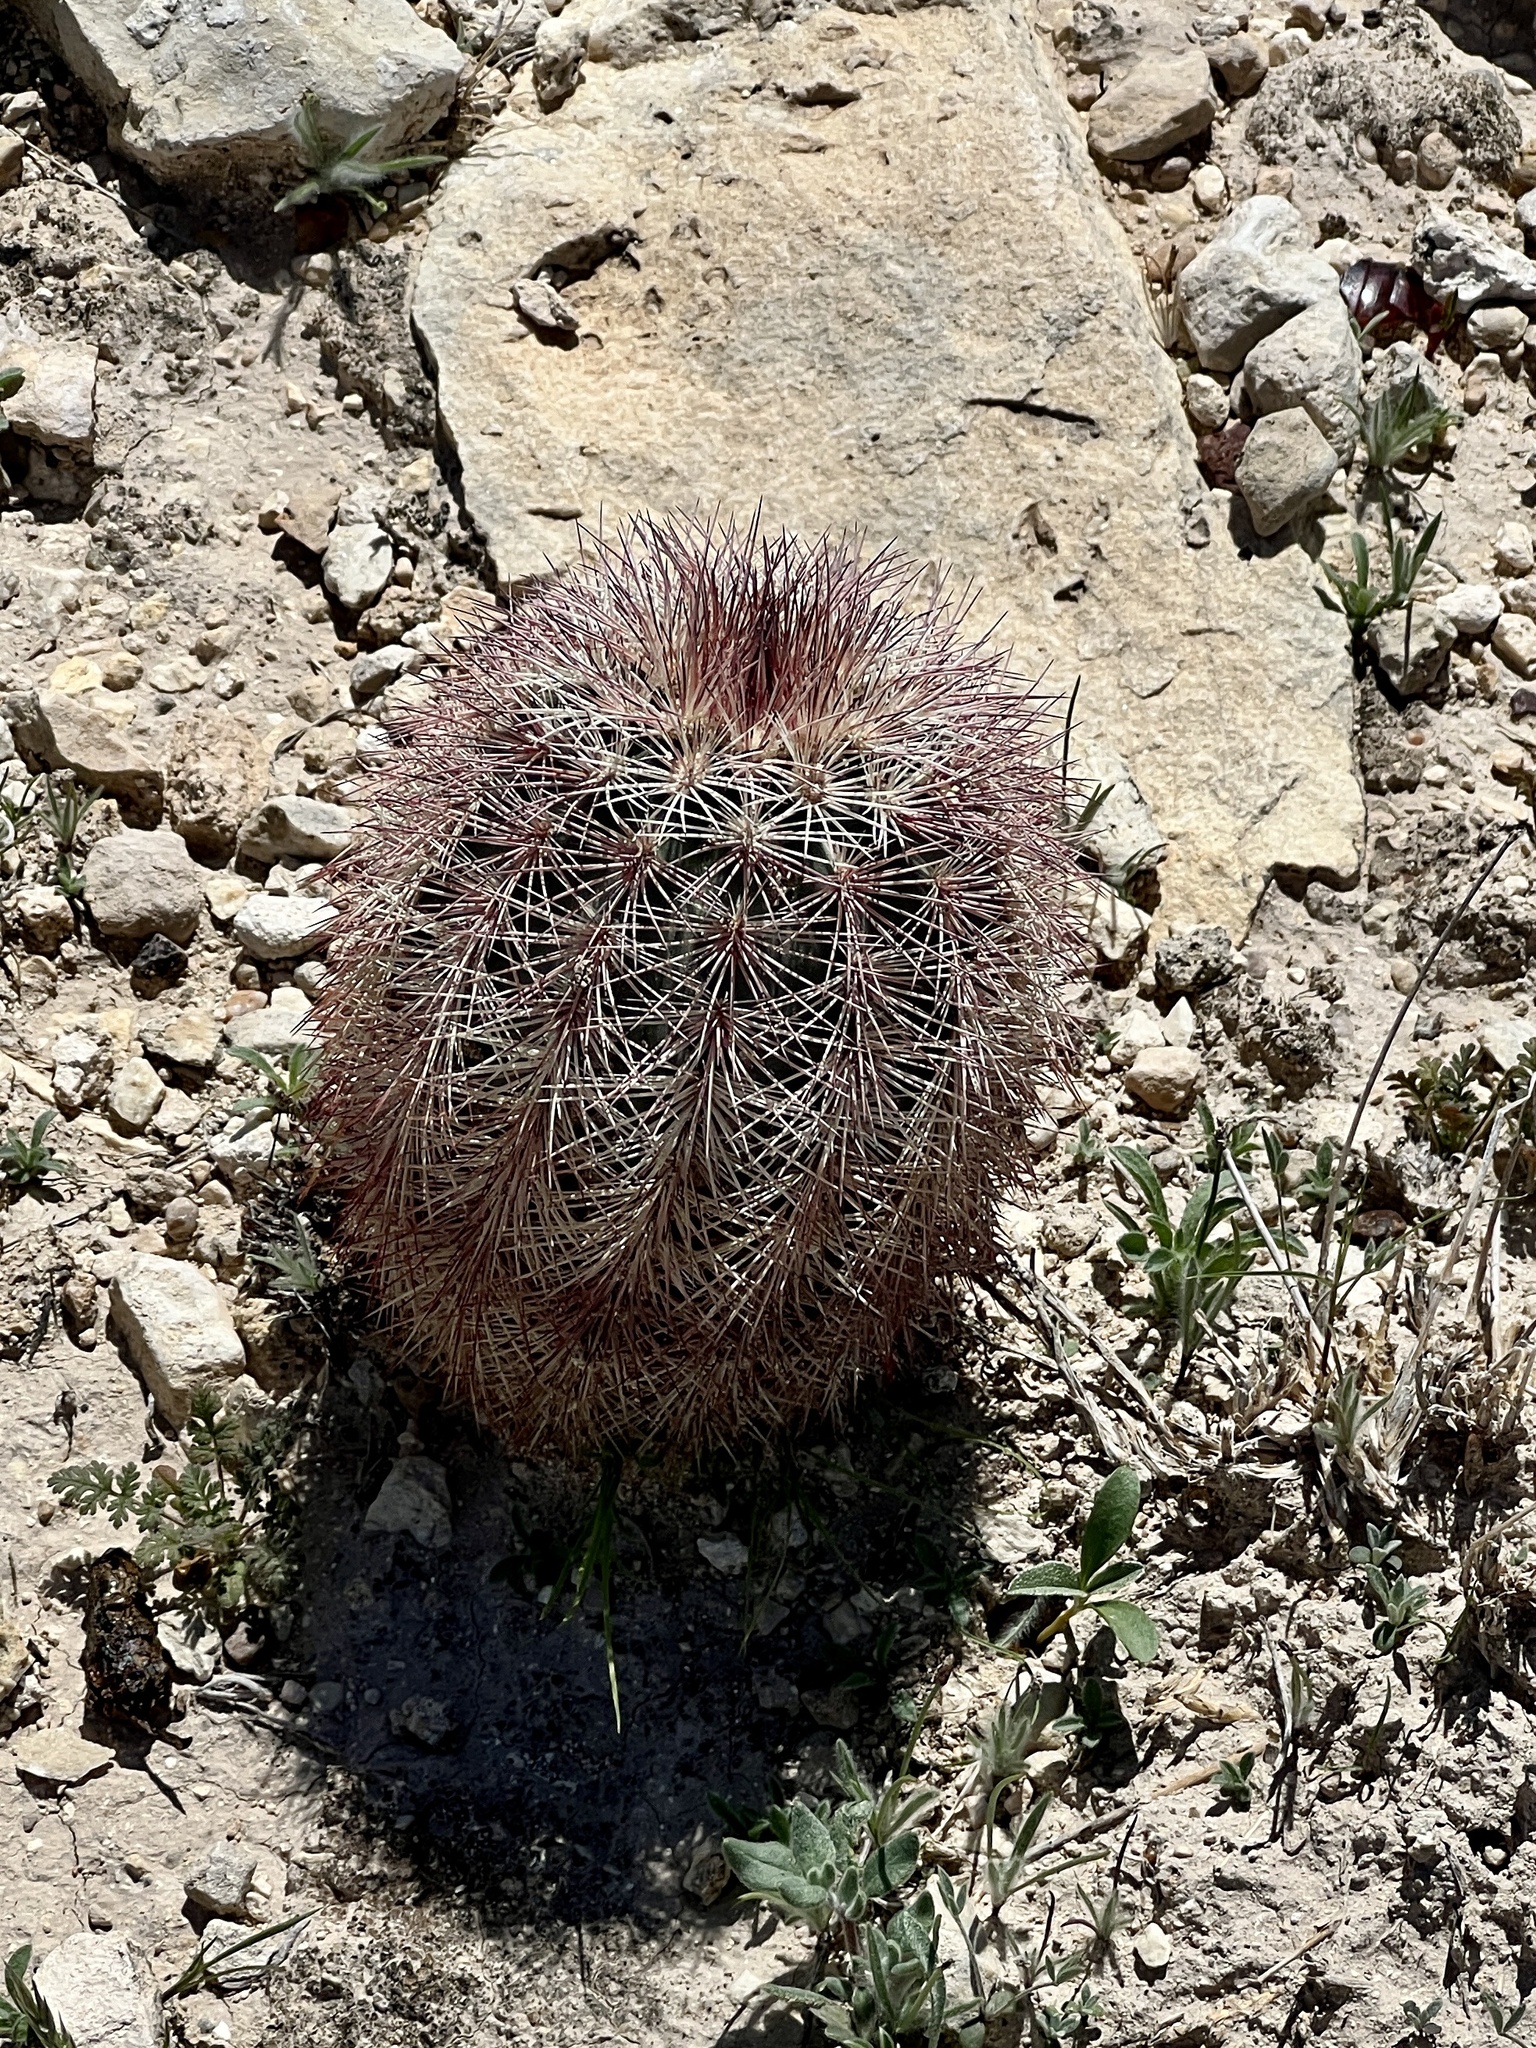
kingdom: Plantae
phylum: Tracheophyta
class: Magnoliopsida
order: Caryophyllales
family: Cactaceae
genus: Echinocereus
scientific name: Echinocereus dasyacanthus
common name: Spiny hedgehog cactus
